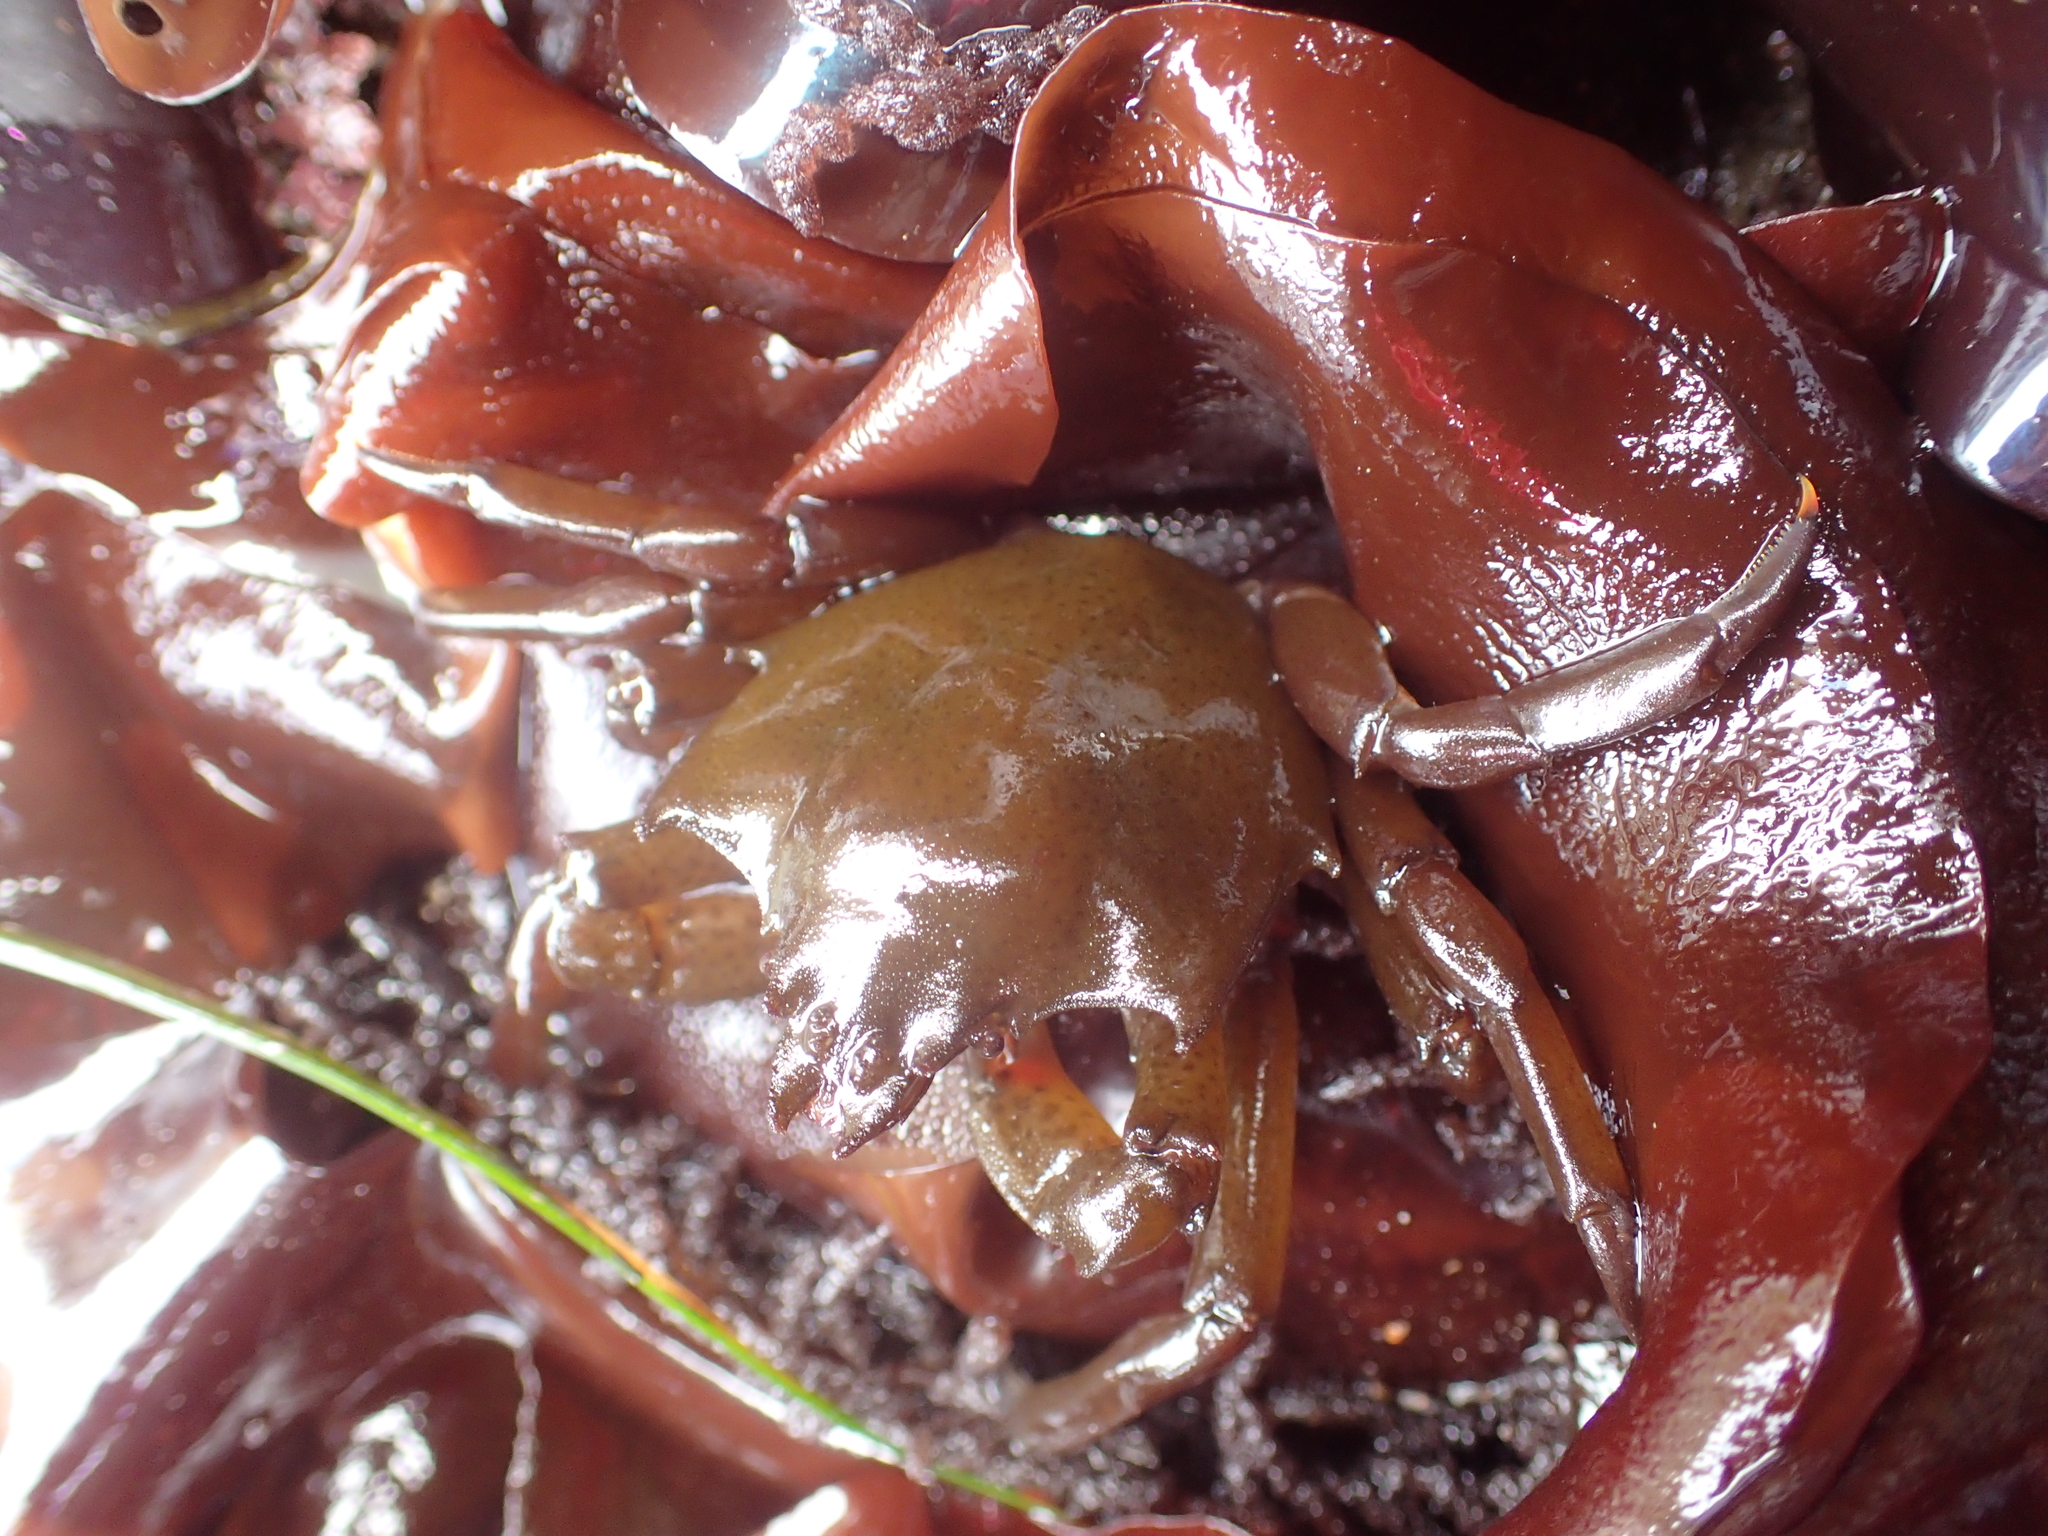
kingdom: Animalia
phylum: Arthropoda
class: Malacostraca
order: Decapoda
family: Epialtidae
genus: Pugettia
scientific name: Pugettia producta
